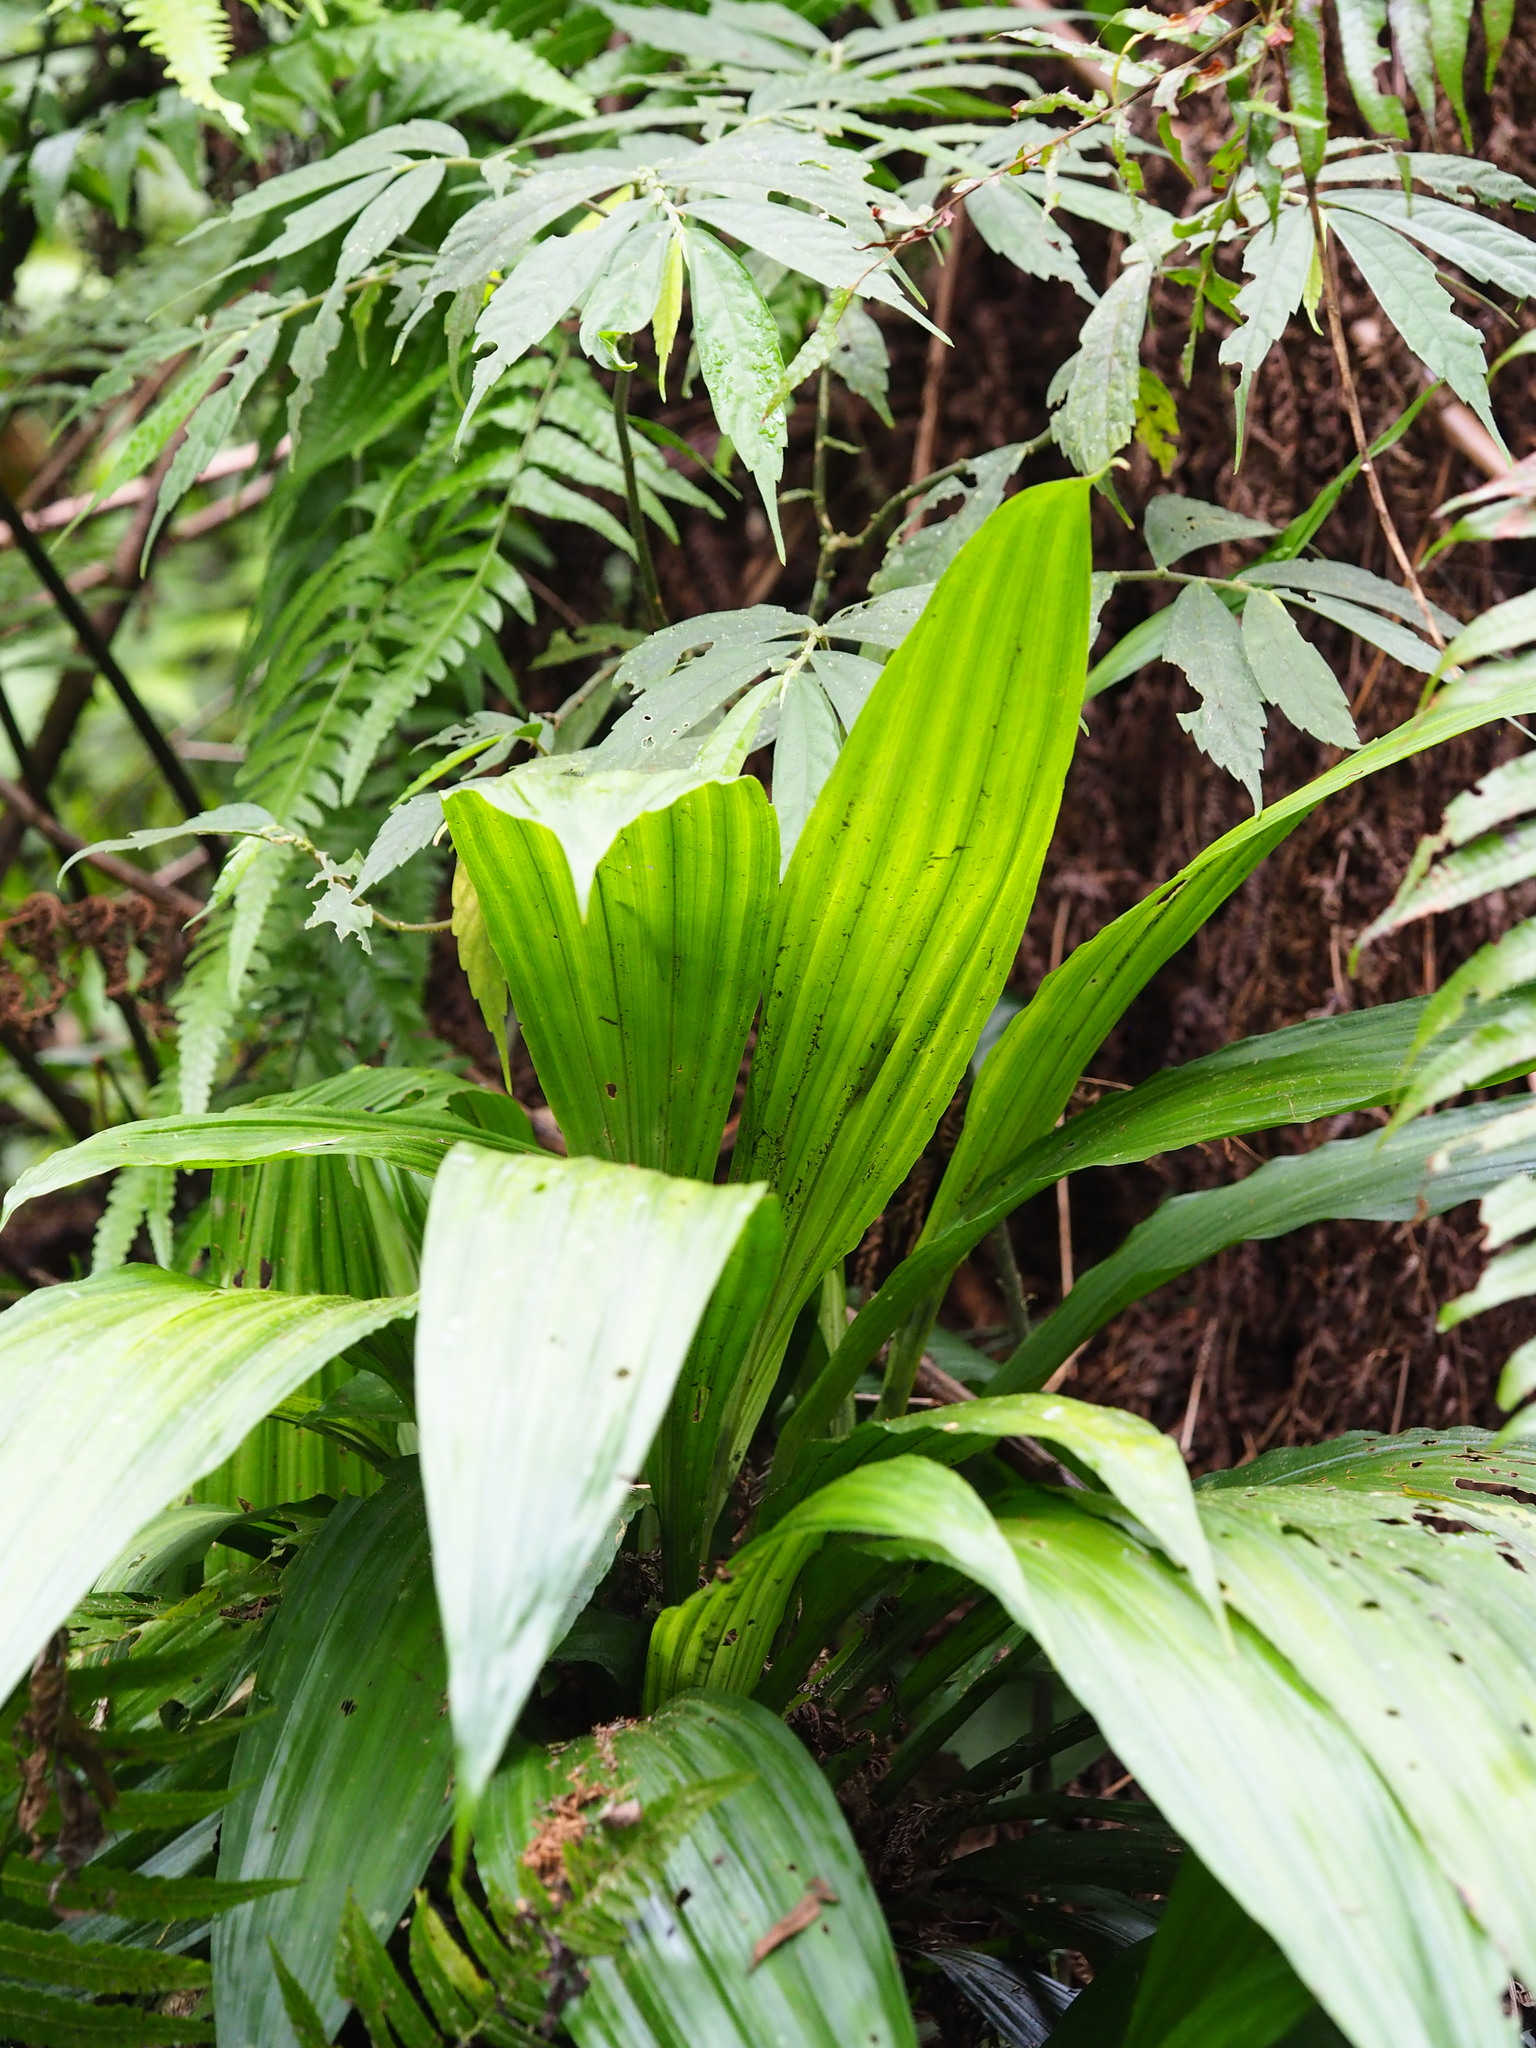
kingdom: Plantae
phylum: Tracheophyta
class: Liliopsida
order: Asparagales
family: Orchidaceae
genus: Calanthe
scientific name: Calanthe formosana
